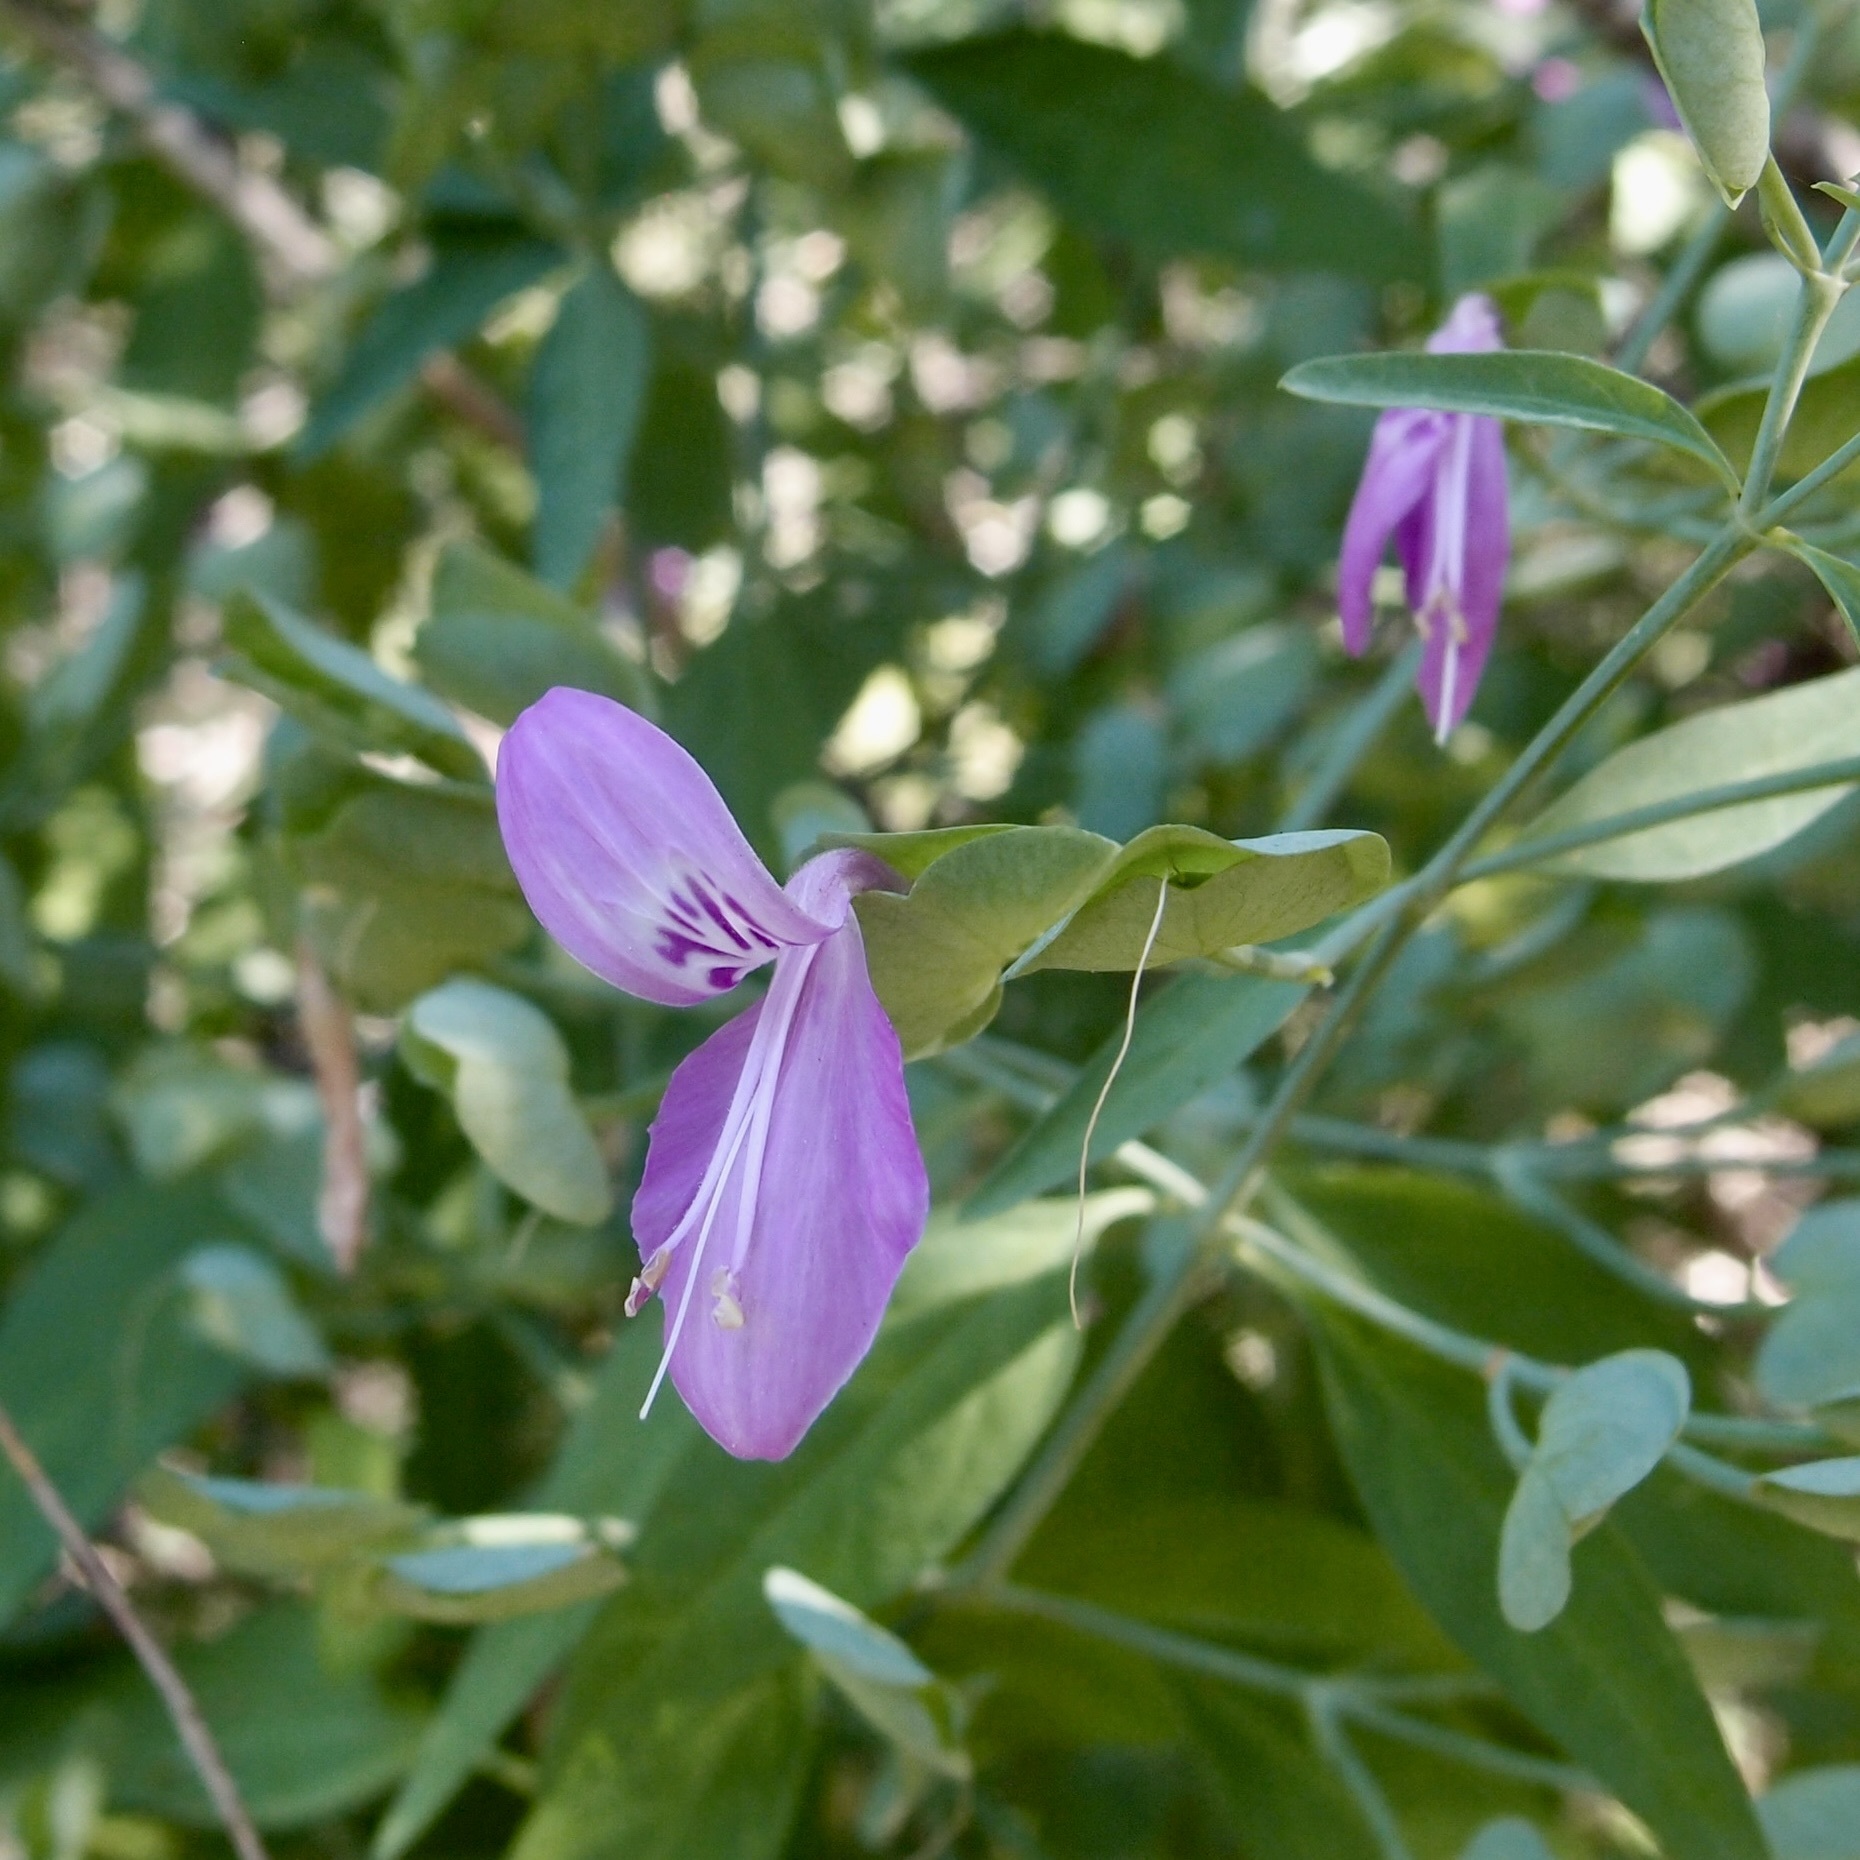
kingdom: Plantae
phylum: Tracheophyta
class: Magnoliopsida
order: Lamiales
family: Acanthaceae
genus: Dicliptera
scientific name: Dicliptera resupinata
